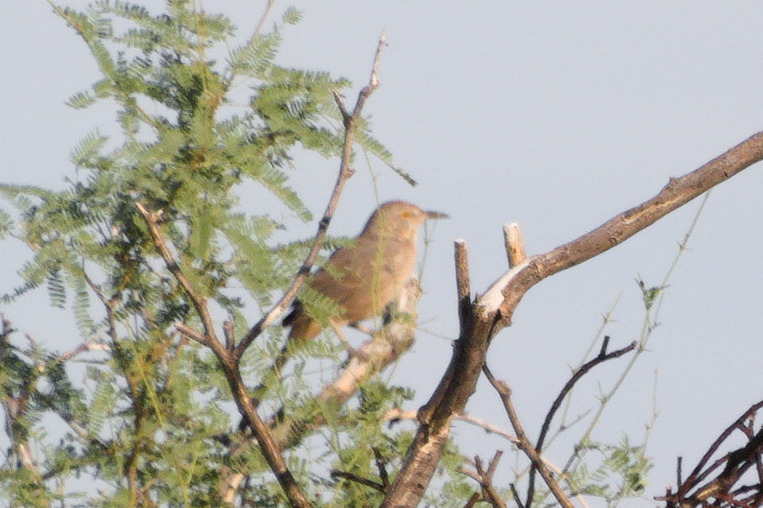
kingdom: Animalia
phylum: Chordata
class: Aves
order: Passeriformes
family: Mimidae
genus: Toxostoma
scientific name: Toxostoma bendirei
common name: Bendire's thrasher
